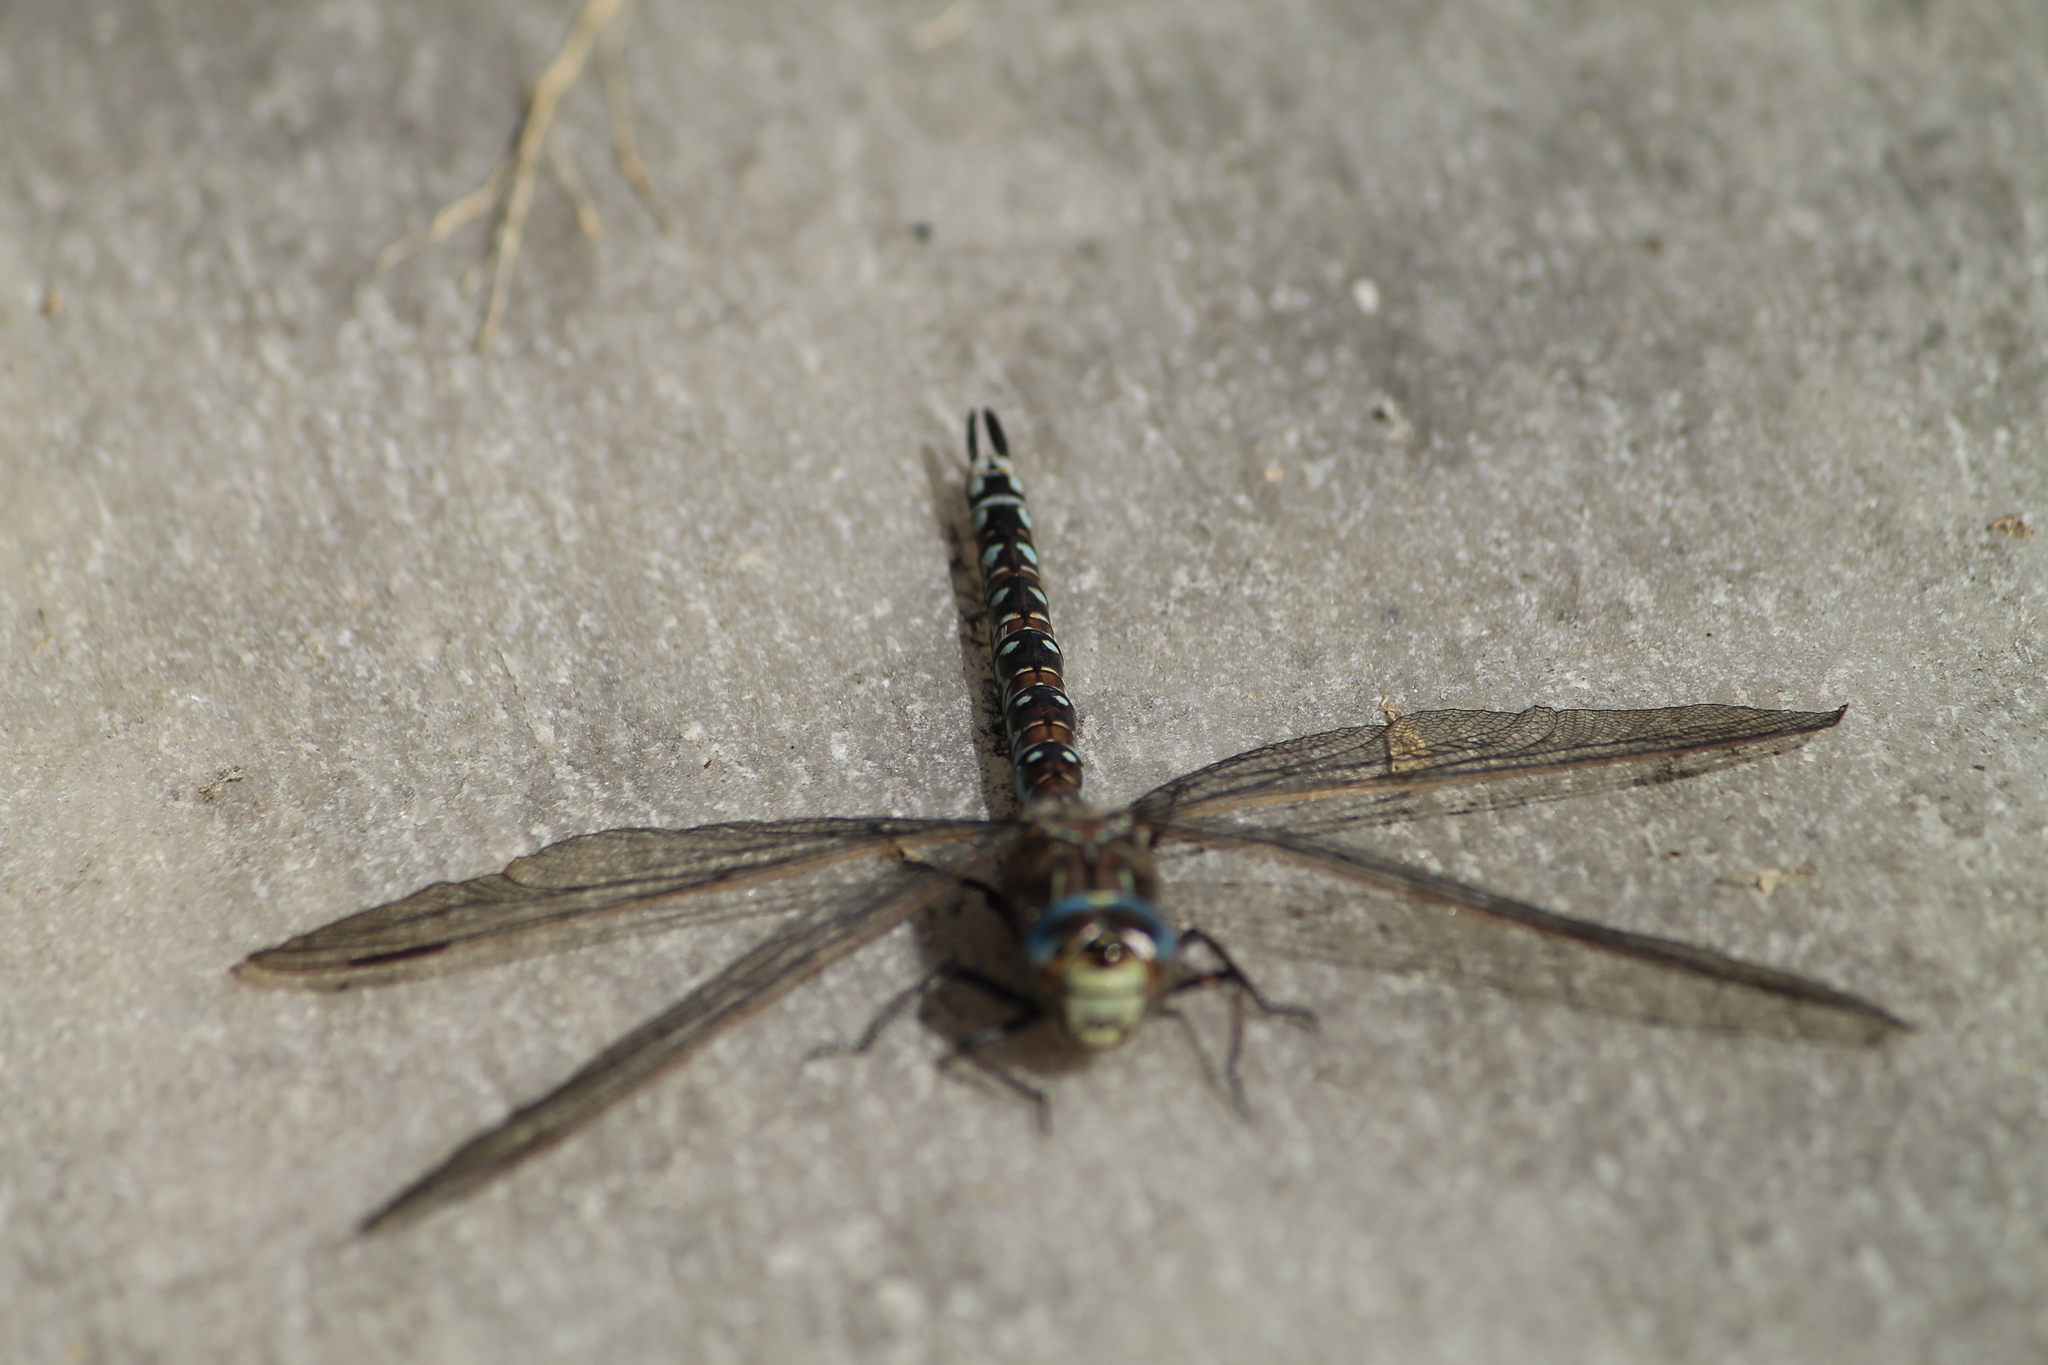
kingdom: Animalia
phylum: Arthropoda
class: Insecta
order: Odonata
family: Aeshnidae
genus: Aeshna
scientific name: Aeshna caerulea
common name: Azure hawker
